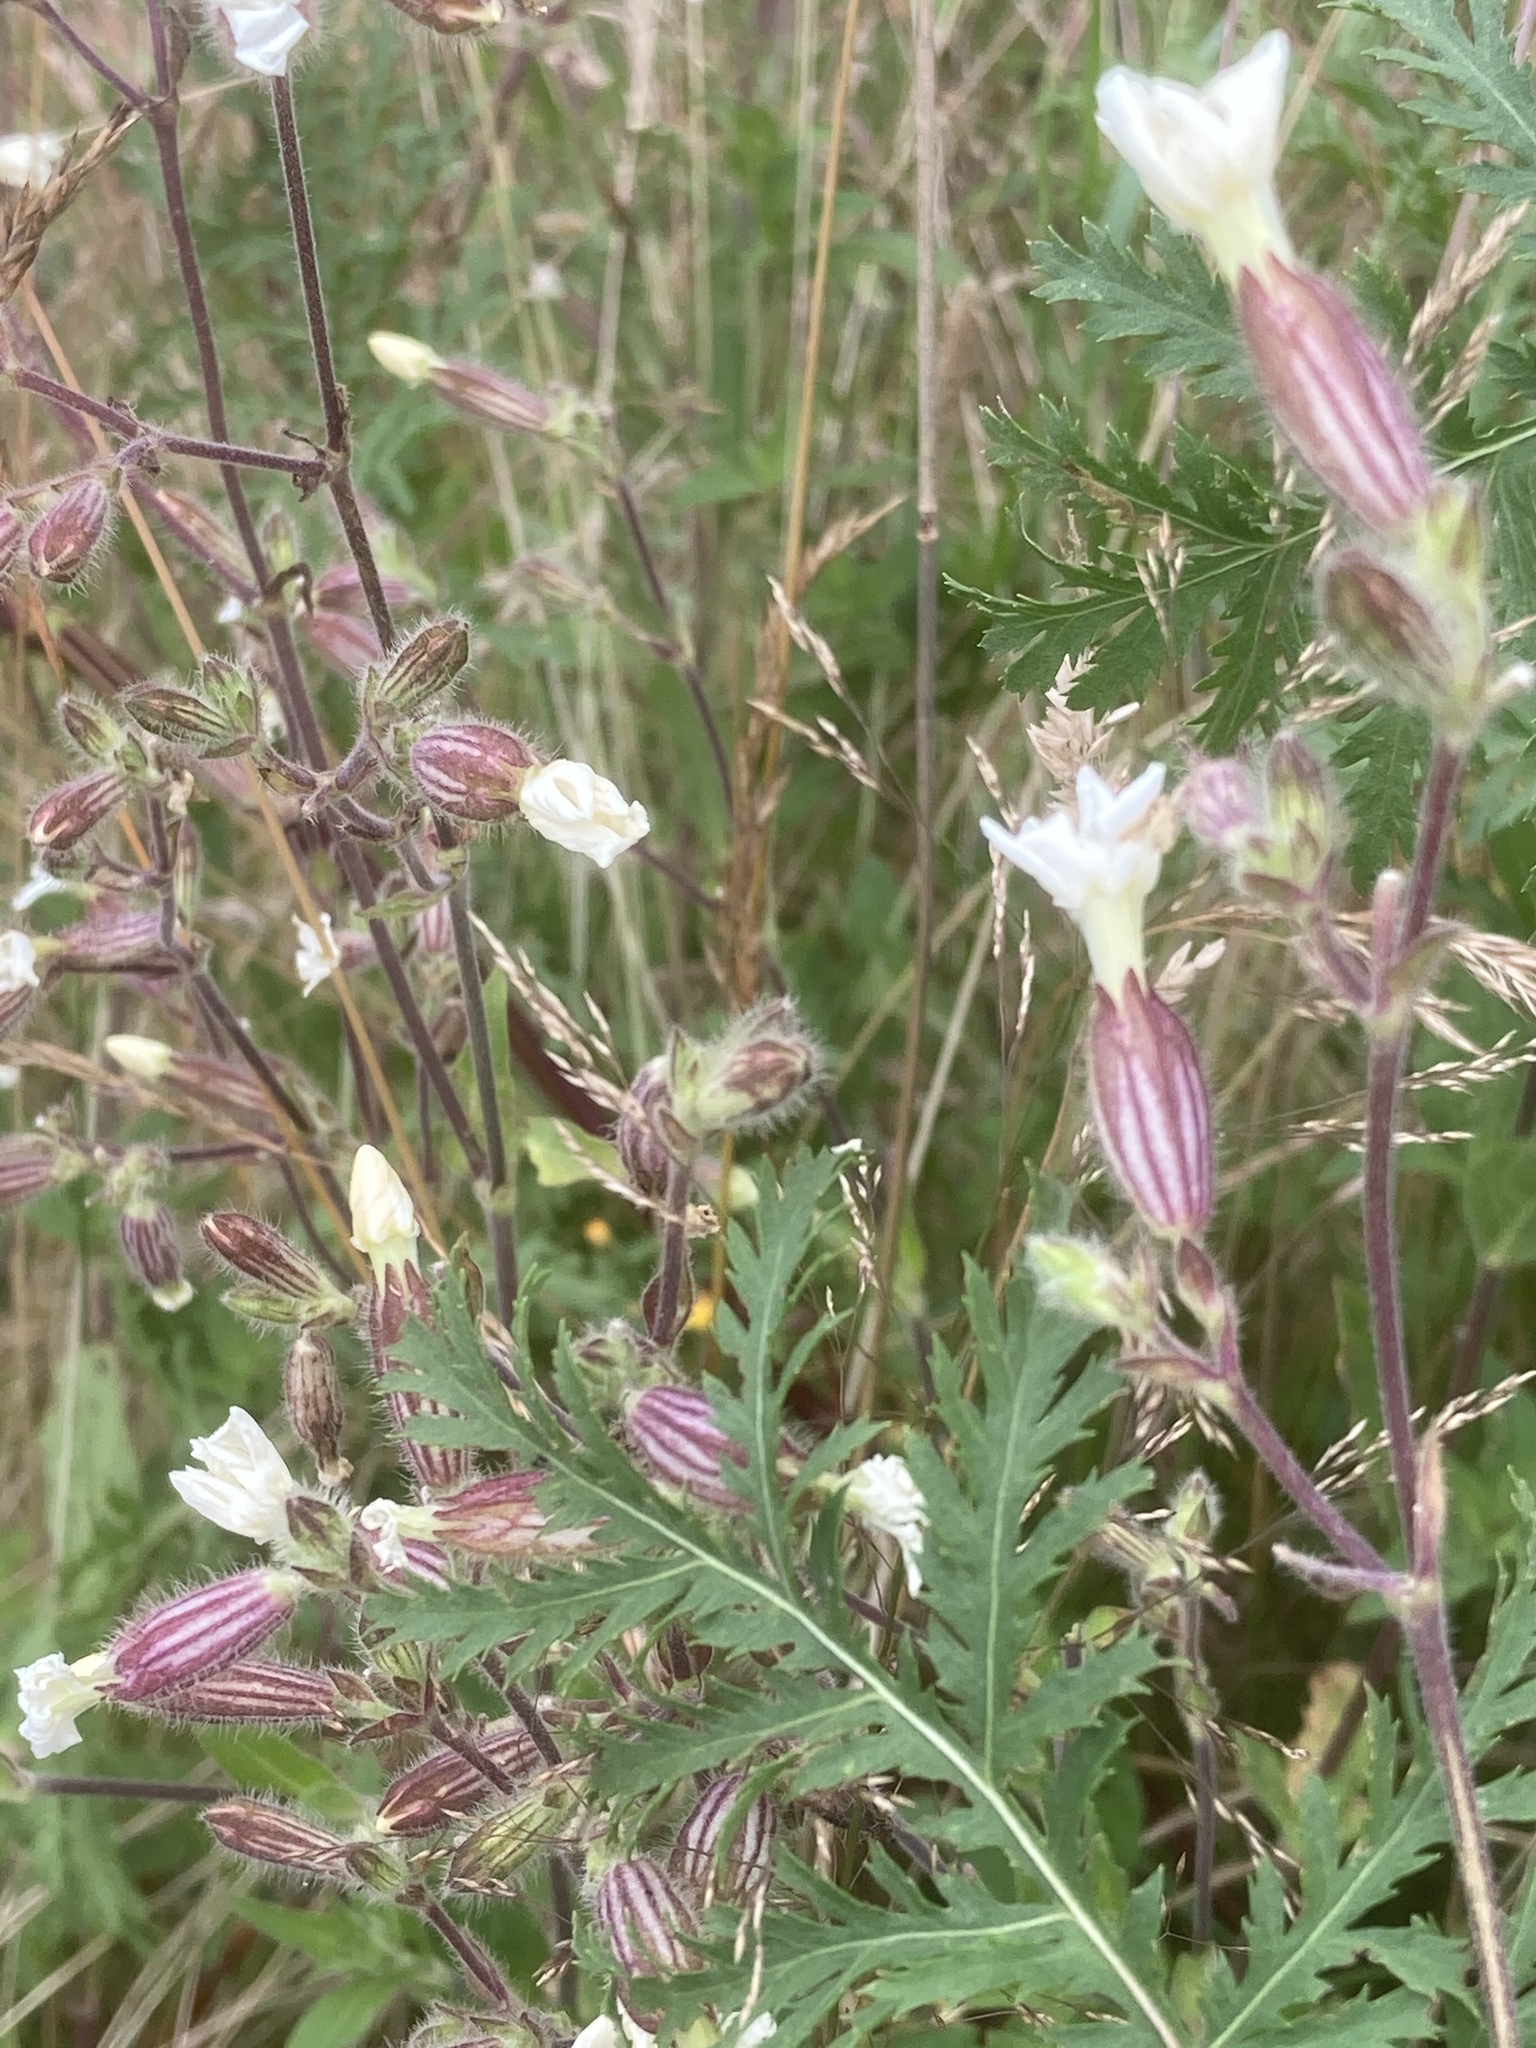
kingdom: Plantae
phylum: Tracheophyta
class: Magnoliopsida
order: Caryophyllales
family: Caryophyllaceae
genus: Silene
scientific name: Silene latifolia
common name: White campion
